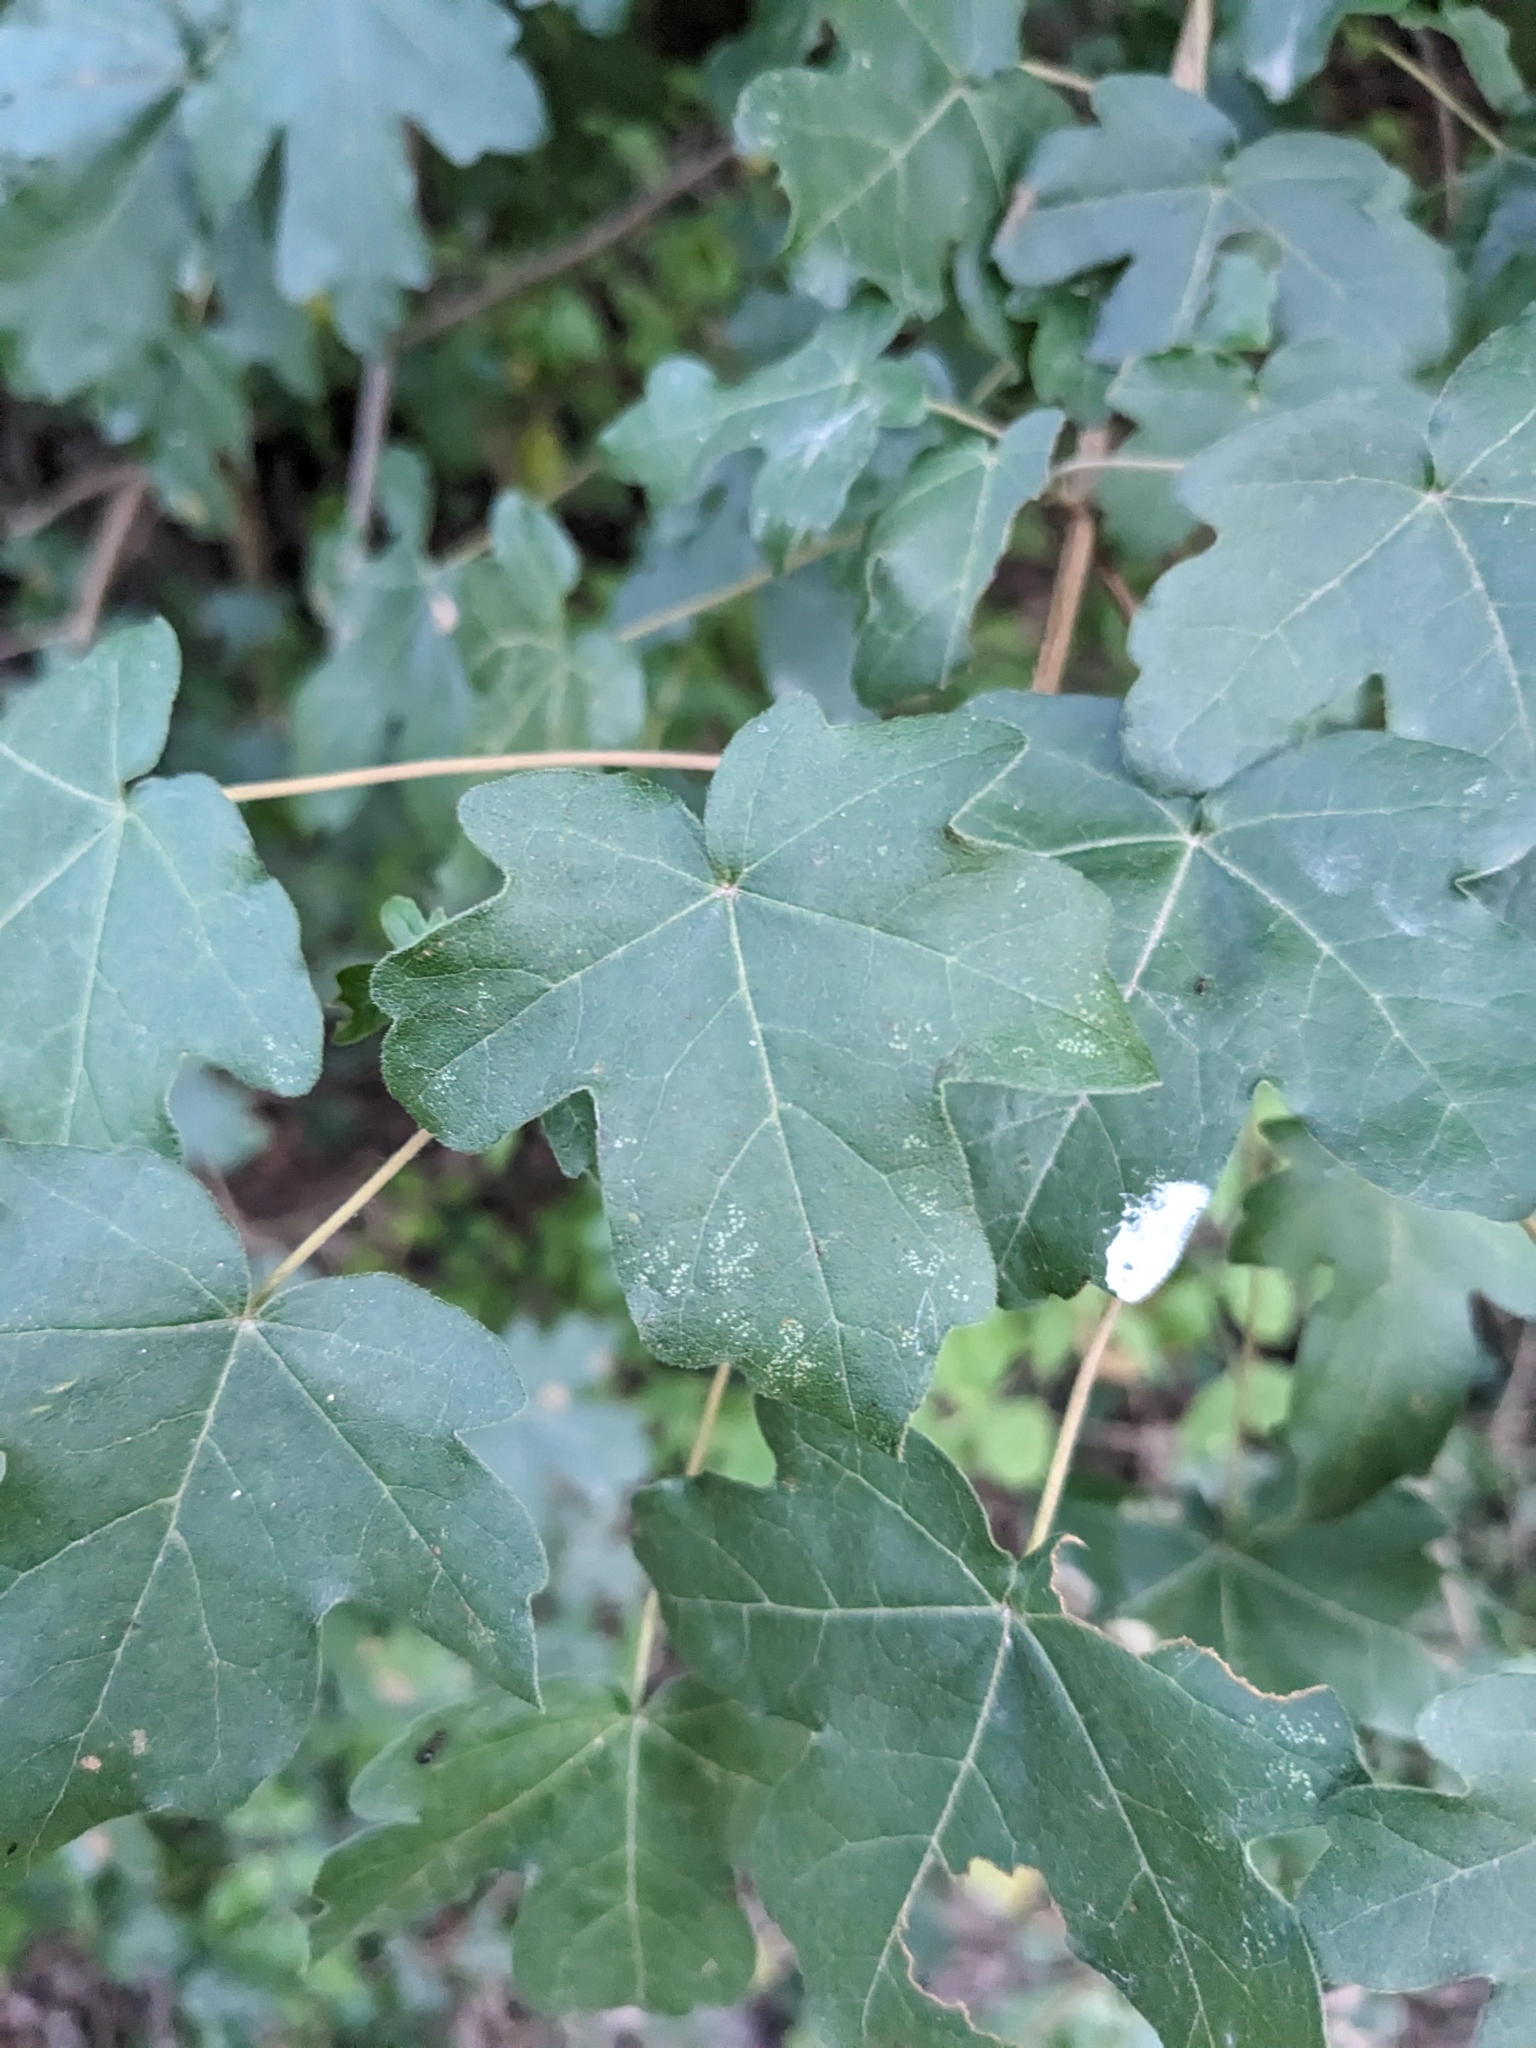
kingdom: Plantae
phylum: Tracheophyta
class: Magnoliopsida
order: Sapindales
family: Sapindaceae
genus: Acer
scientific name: Acer campestre
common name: Field maple
